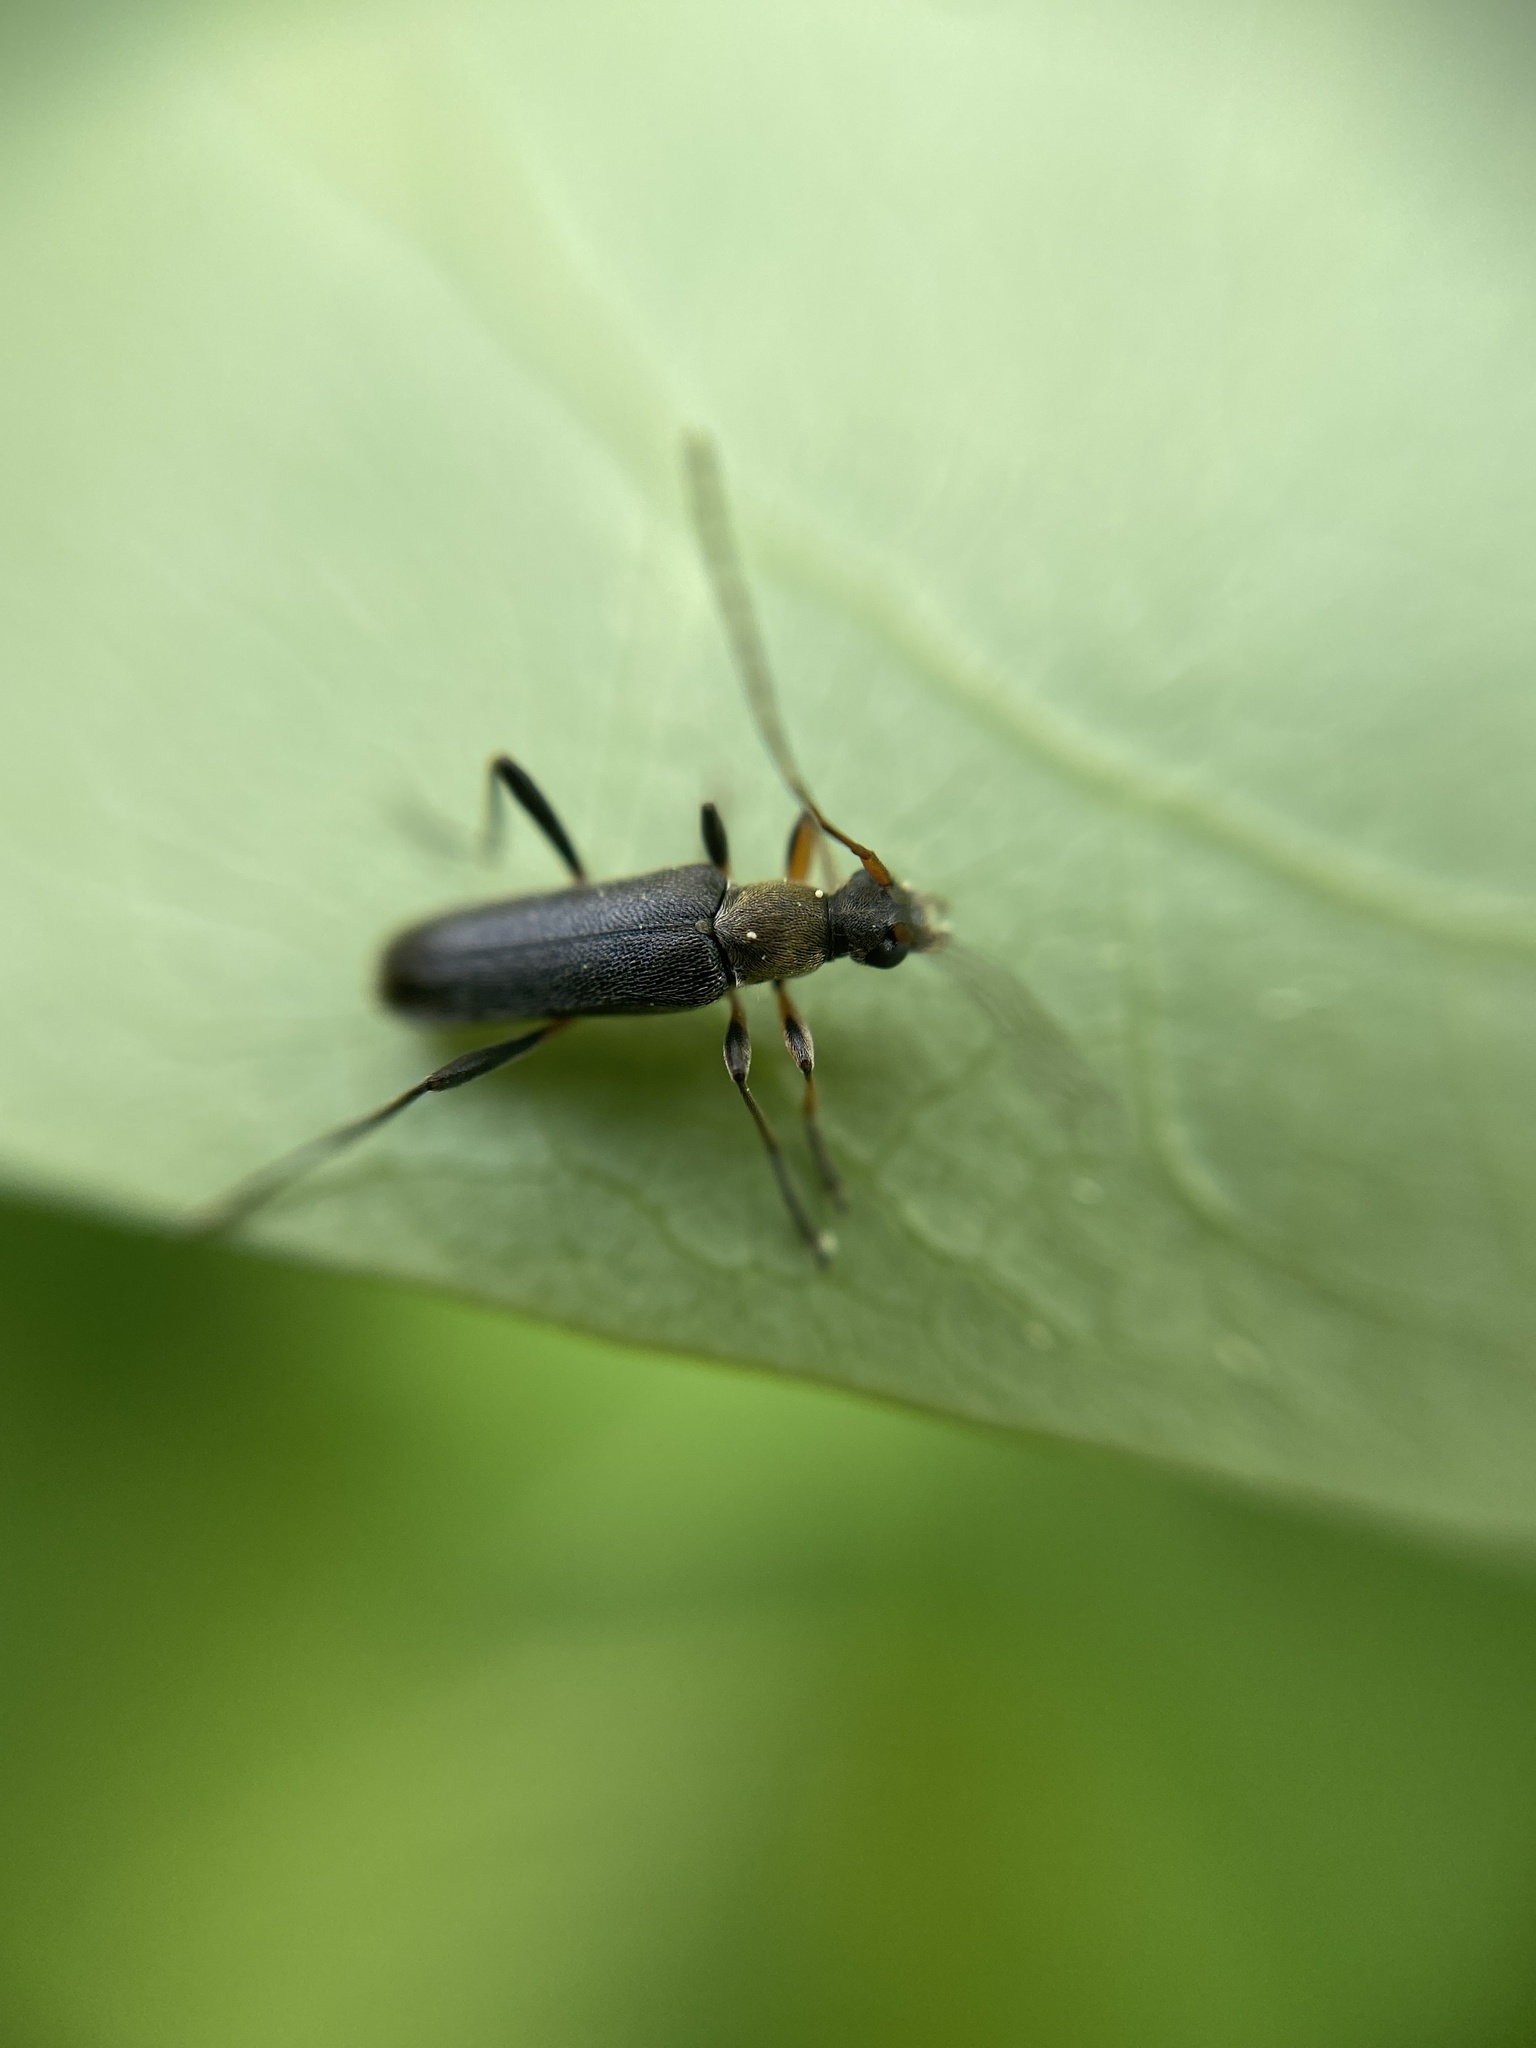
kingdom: Animalia
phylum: Arthropoda
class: Insecta
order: Coleoptera
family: Cerambycidae
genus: Grammoptera
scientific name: Grammoptera ruficornis
